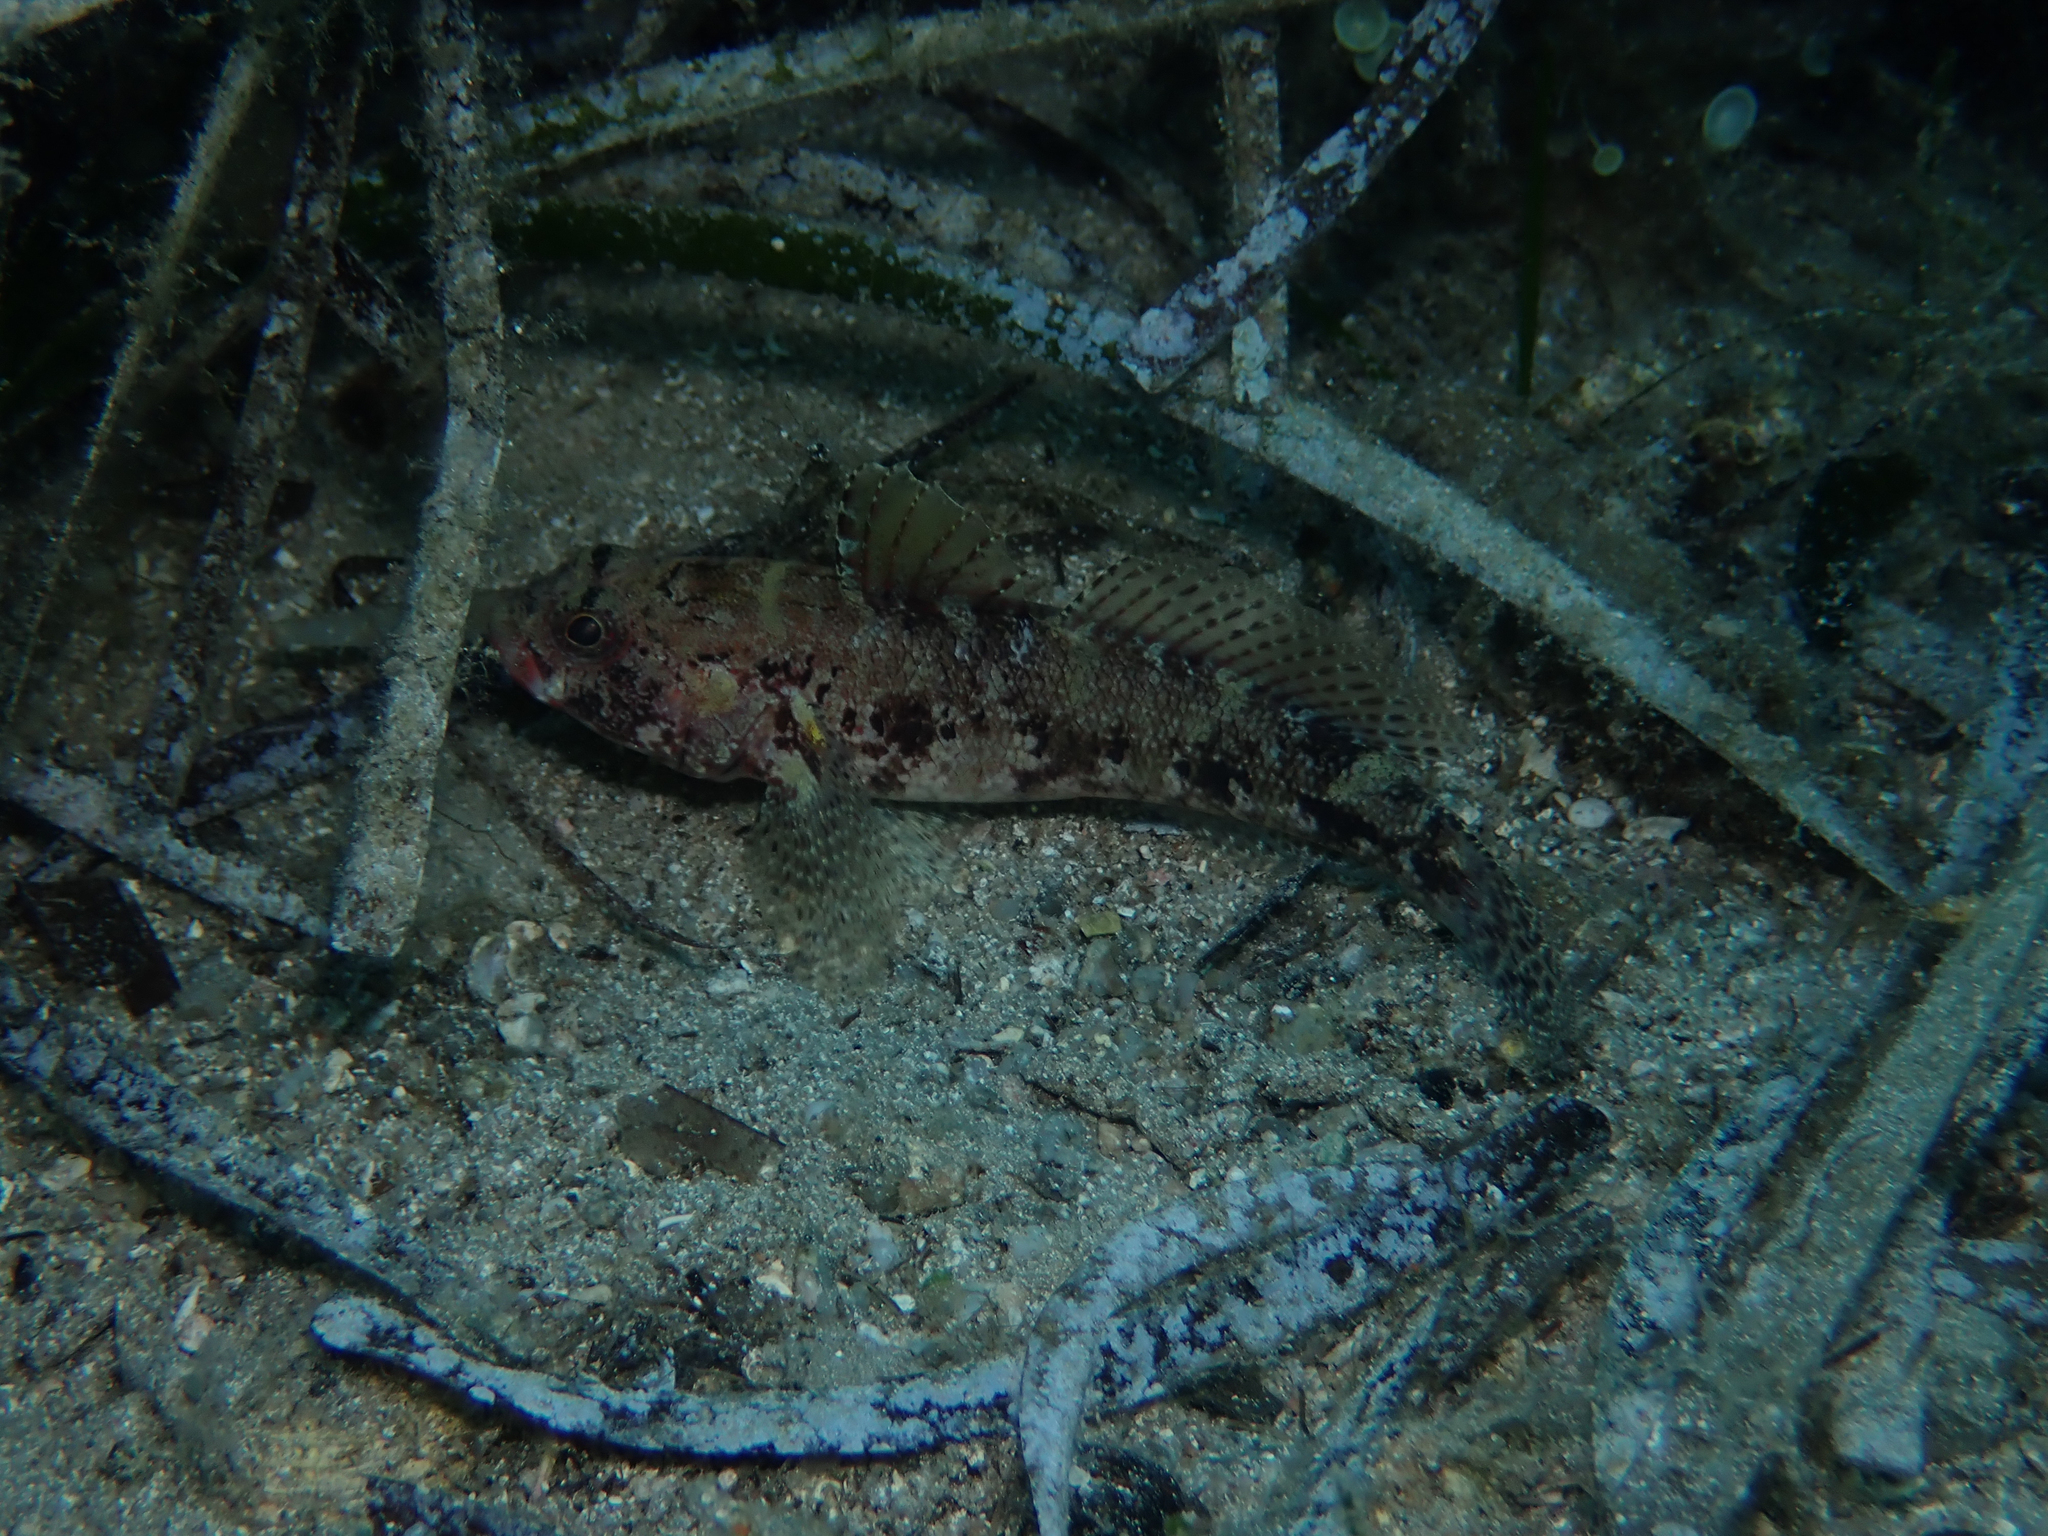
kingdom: Animalia
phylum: Chordata
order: Perciformes
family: Gobiidae
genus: Gobius
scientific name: Gobius cruentatus
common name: Red-mouthed goby
